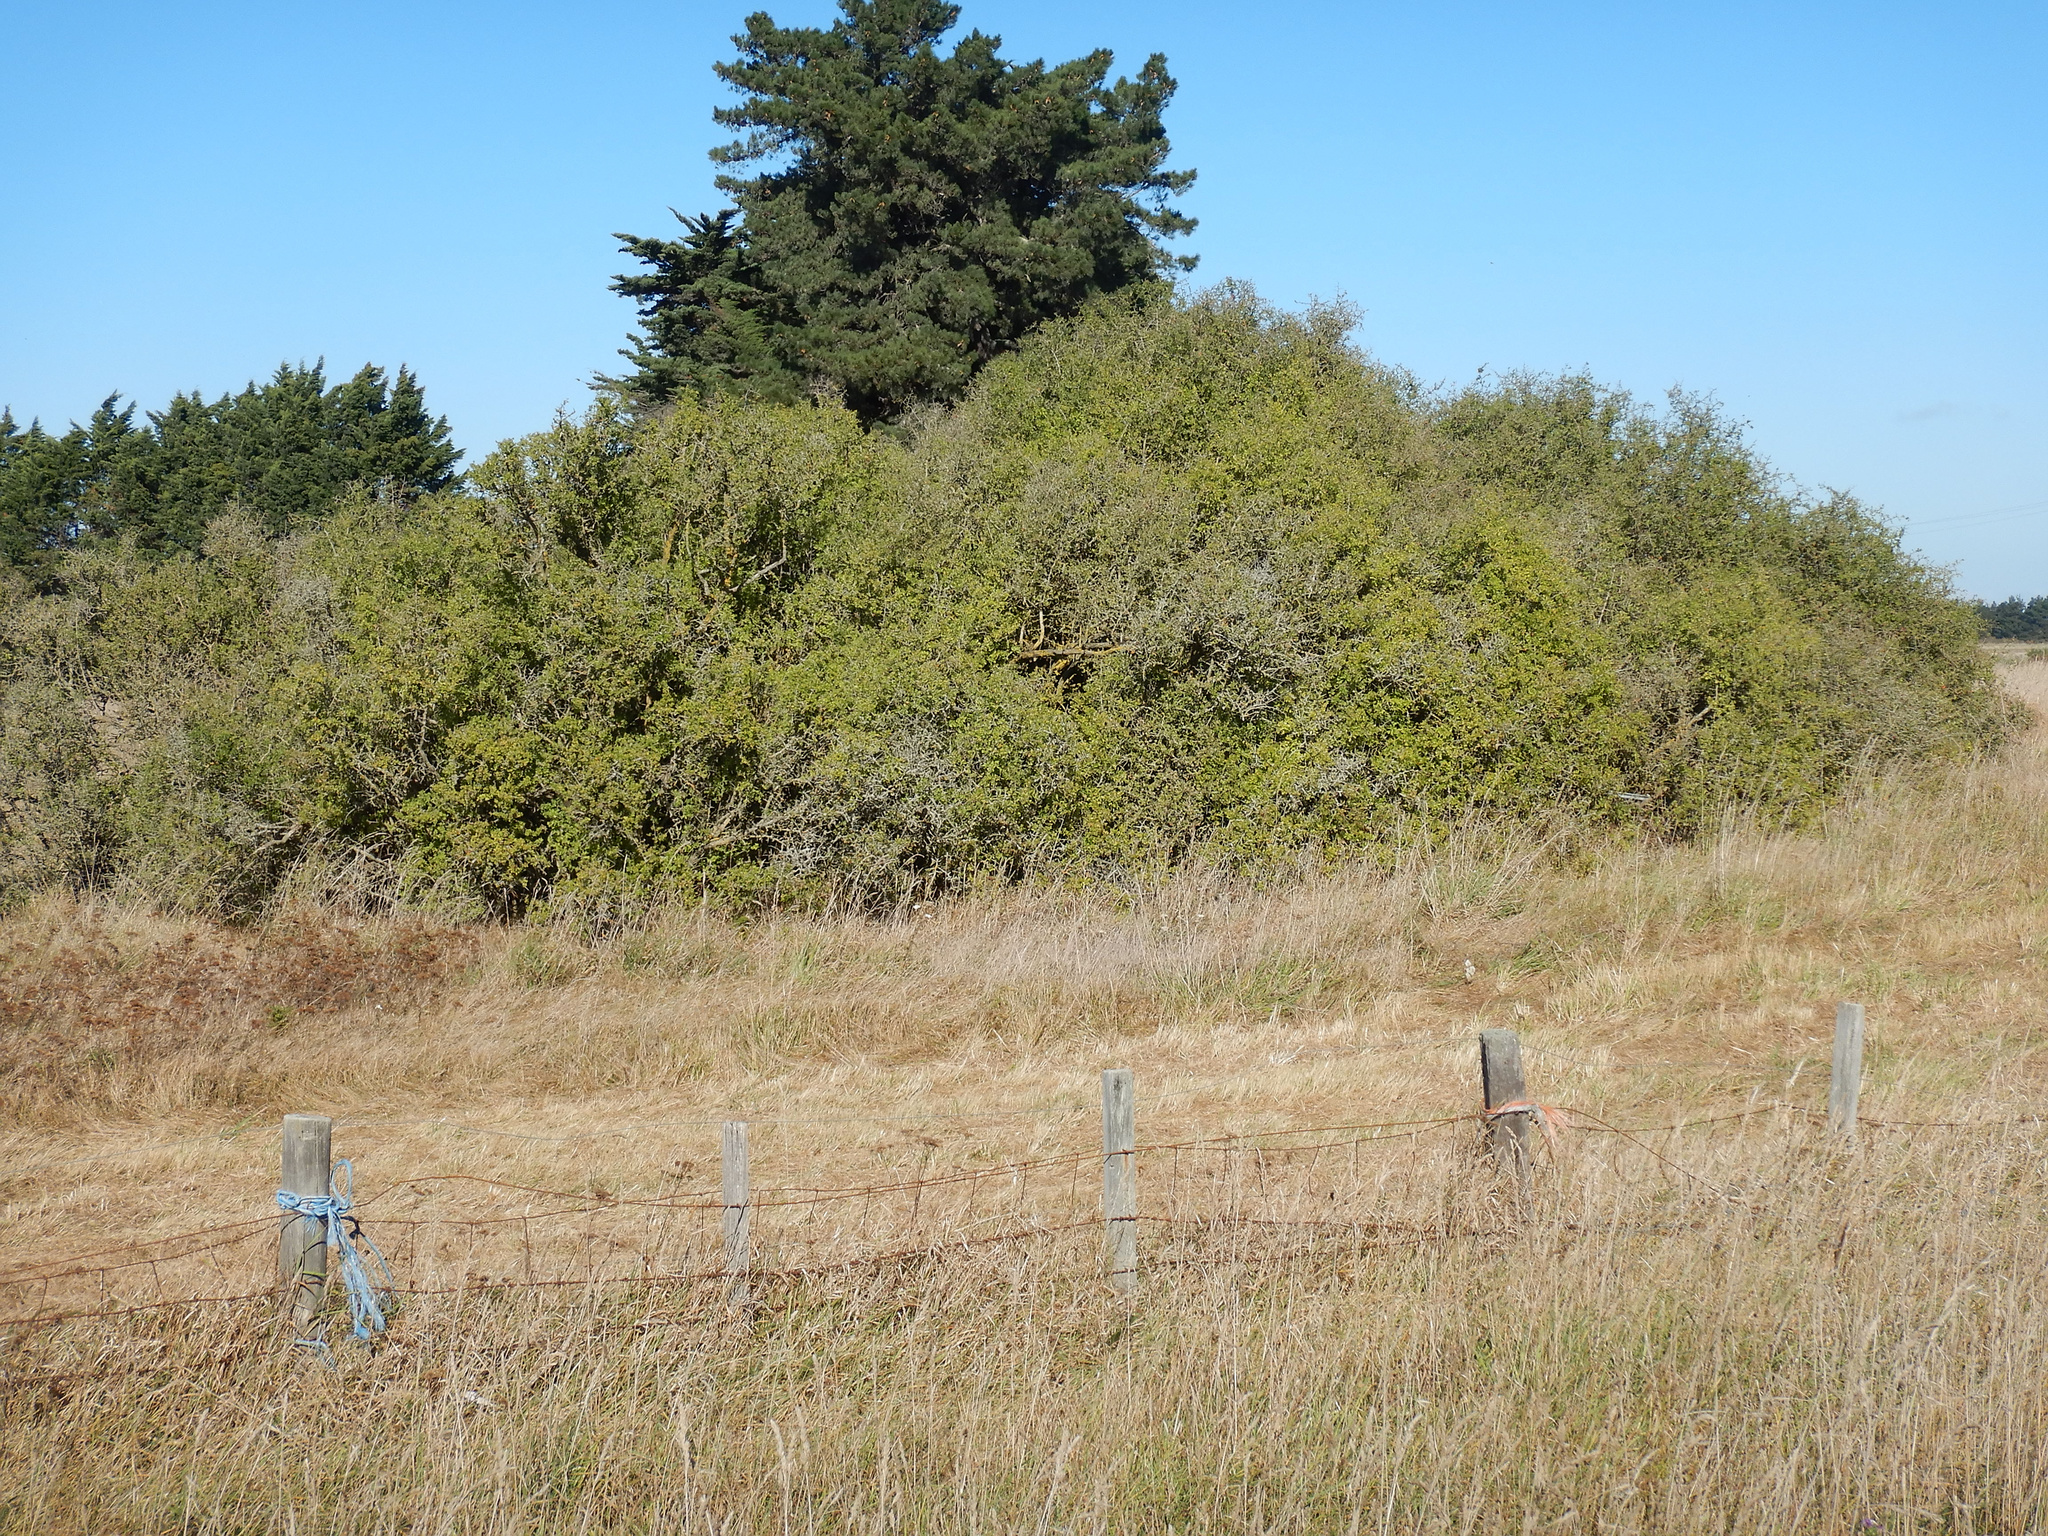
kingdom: Plantae
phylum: Tracheophyta
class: Magnoliopsida
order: Solanales
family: Solanaceae
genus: Lycium
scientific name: Lycium ferocissimum
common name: African boxthorn
